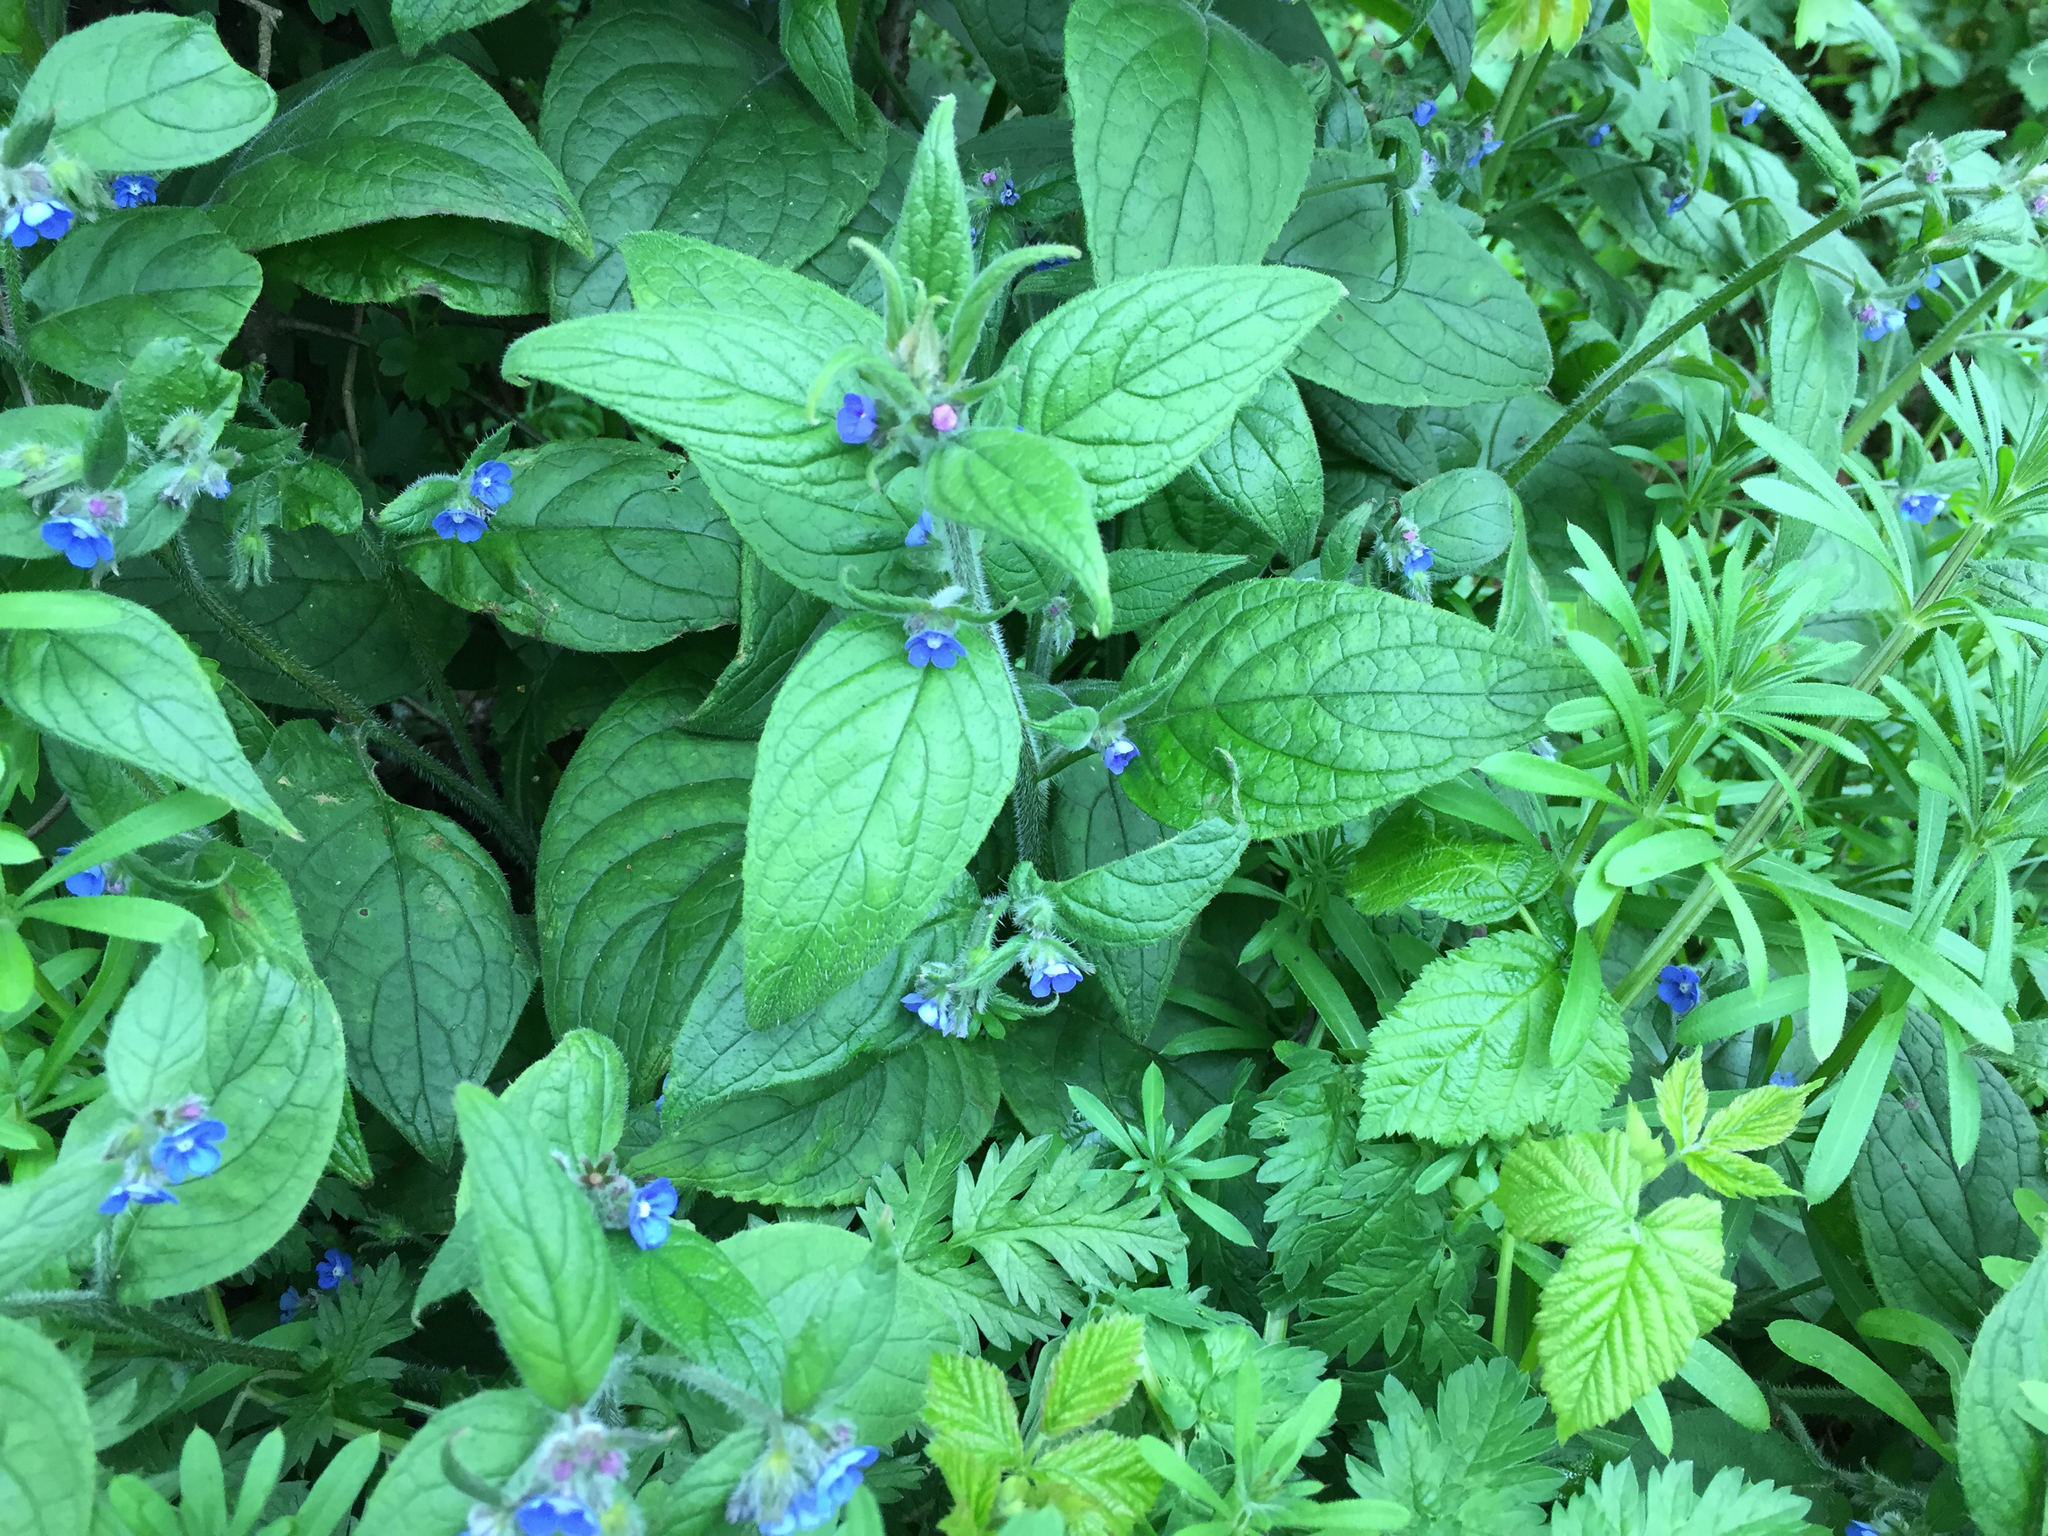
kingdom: Plantae
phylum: Tracheophyta
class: Magnoliopsida
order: Boraginales
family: Boraginaceae
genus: Pentaglottis
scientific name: Pentaglottis sempervirens
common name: Green alkanet
